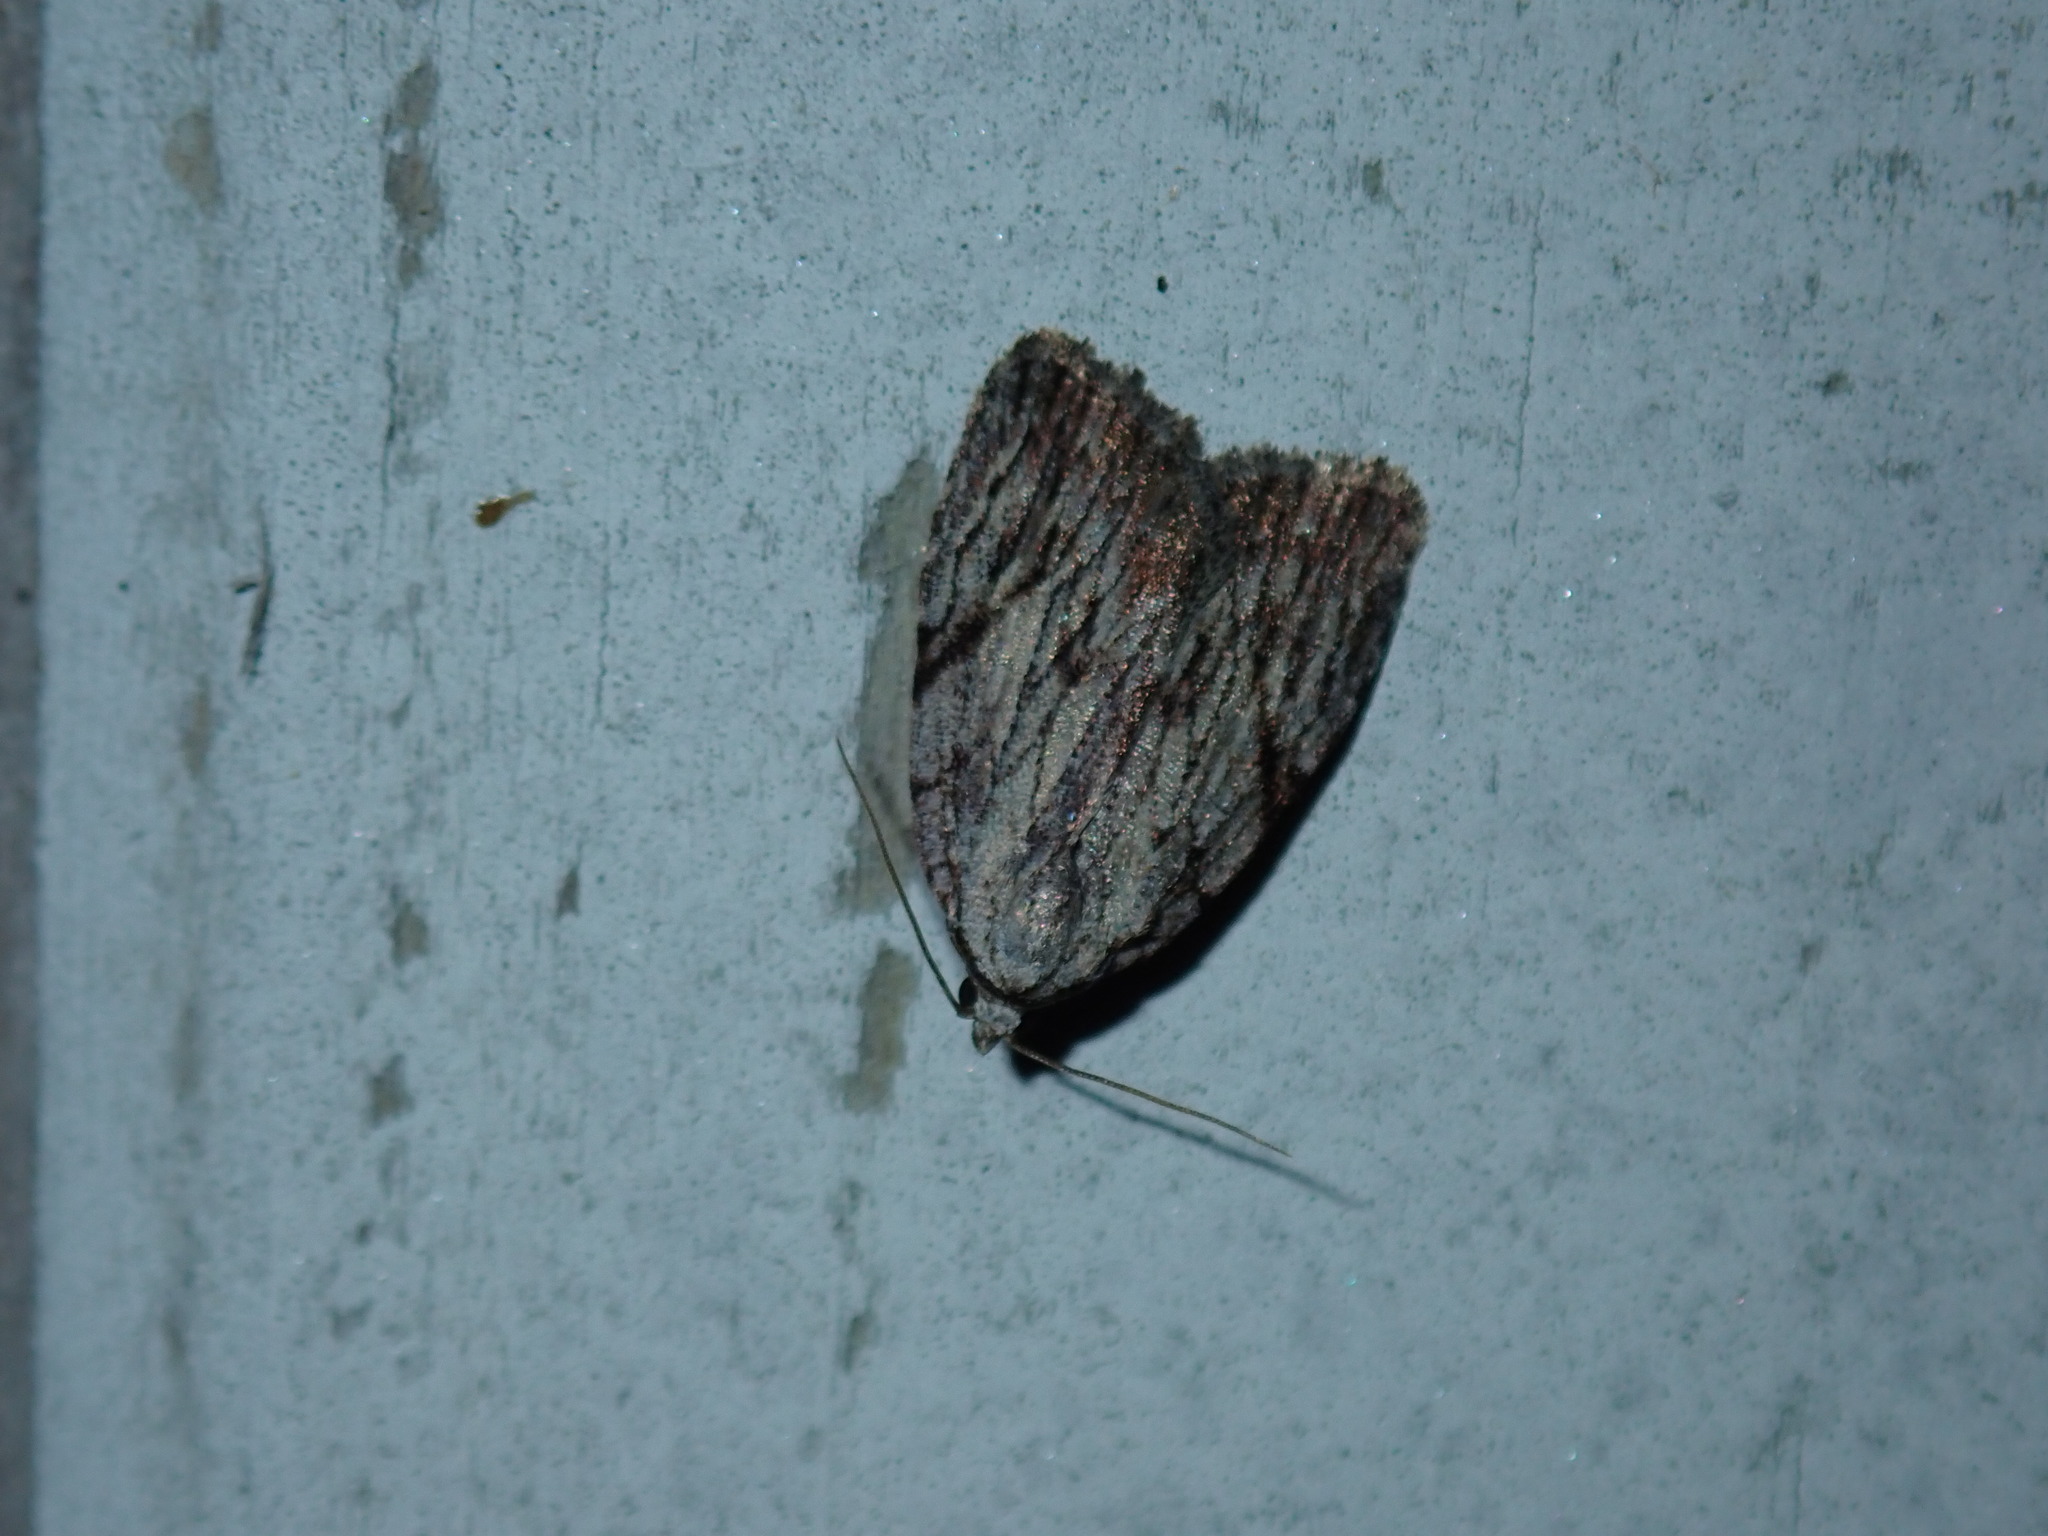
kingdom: Animalia
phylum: Arthropoda
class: Insecta
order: Lepidoptera
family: Noctuidae
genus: Balsa
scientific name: Balsa tristrigella
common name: Three-lined balsa moth
